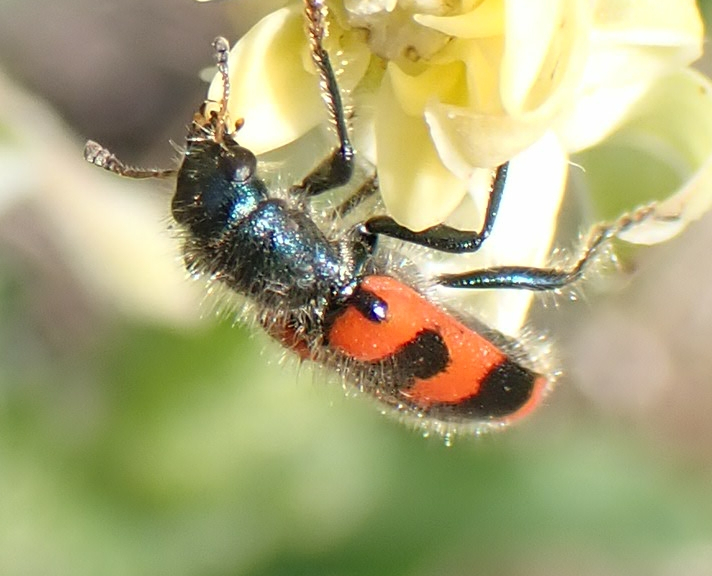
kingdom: Animalia
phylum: Arthropoda
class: Insecta
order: Coleoptera
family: Cleridae
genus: Trichodes
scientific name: Trichodes nutalli
